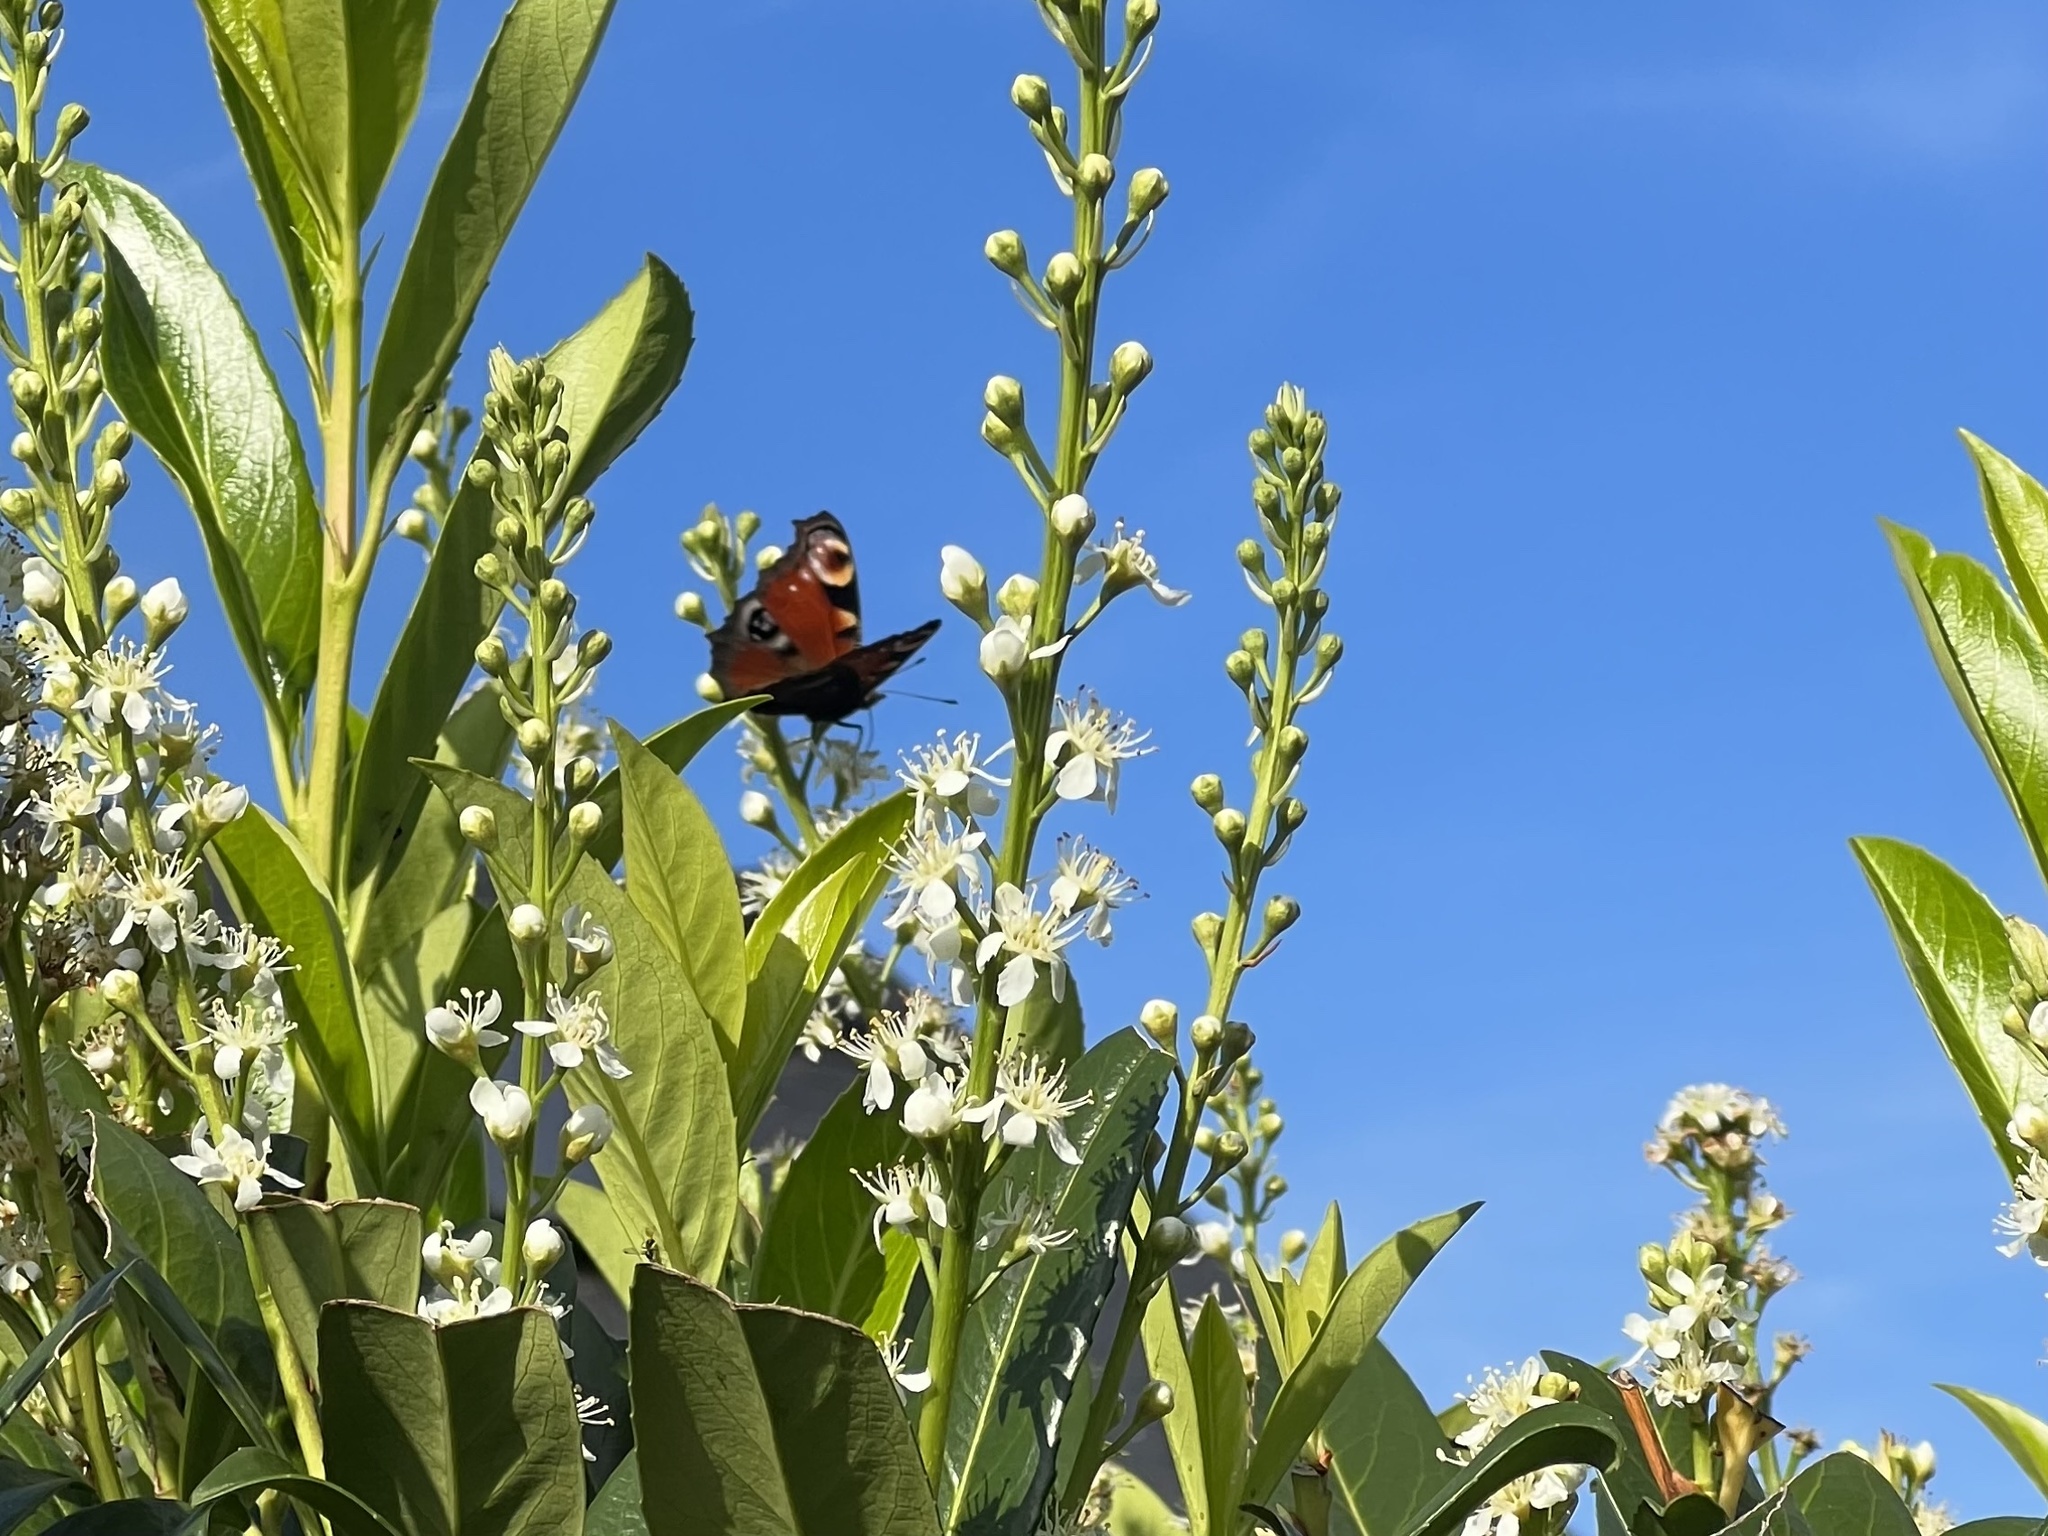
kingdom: Animalia
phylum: Arthropoda
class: Insecta
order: Lepidoptera
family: Nymphalidae
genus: Aglais
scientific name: Aglais io
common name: Peacock
